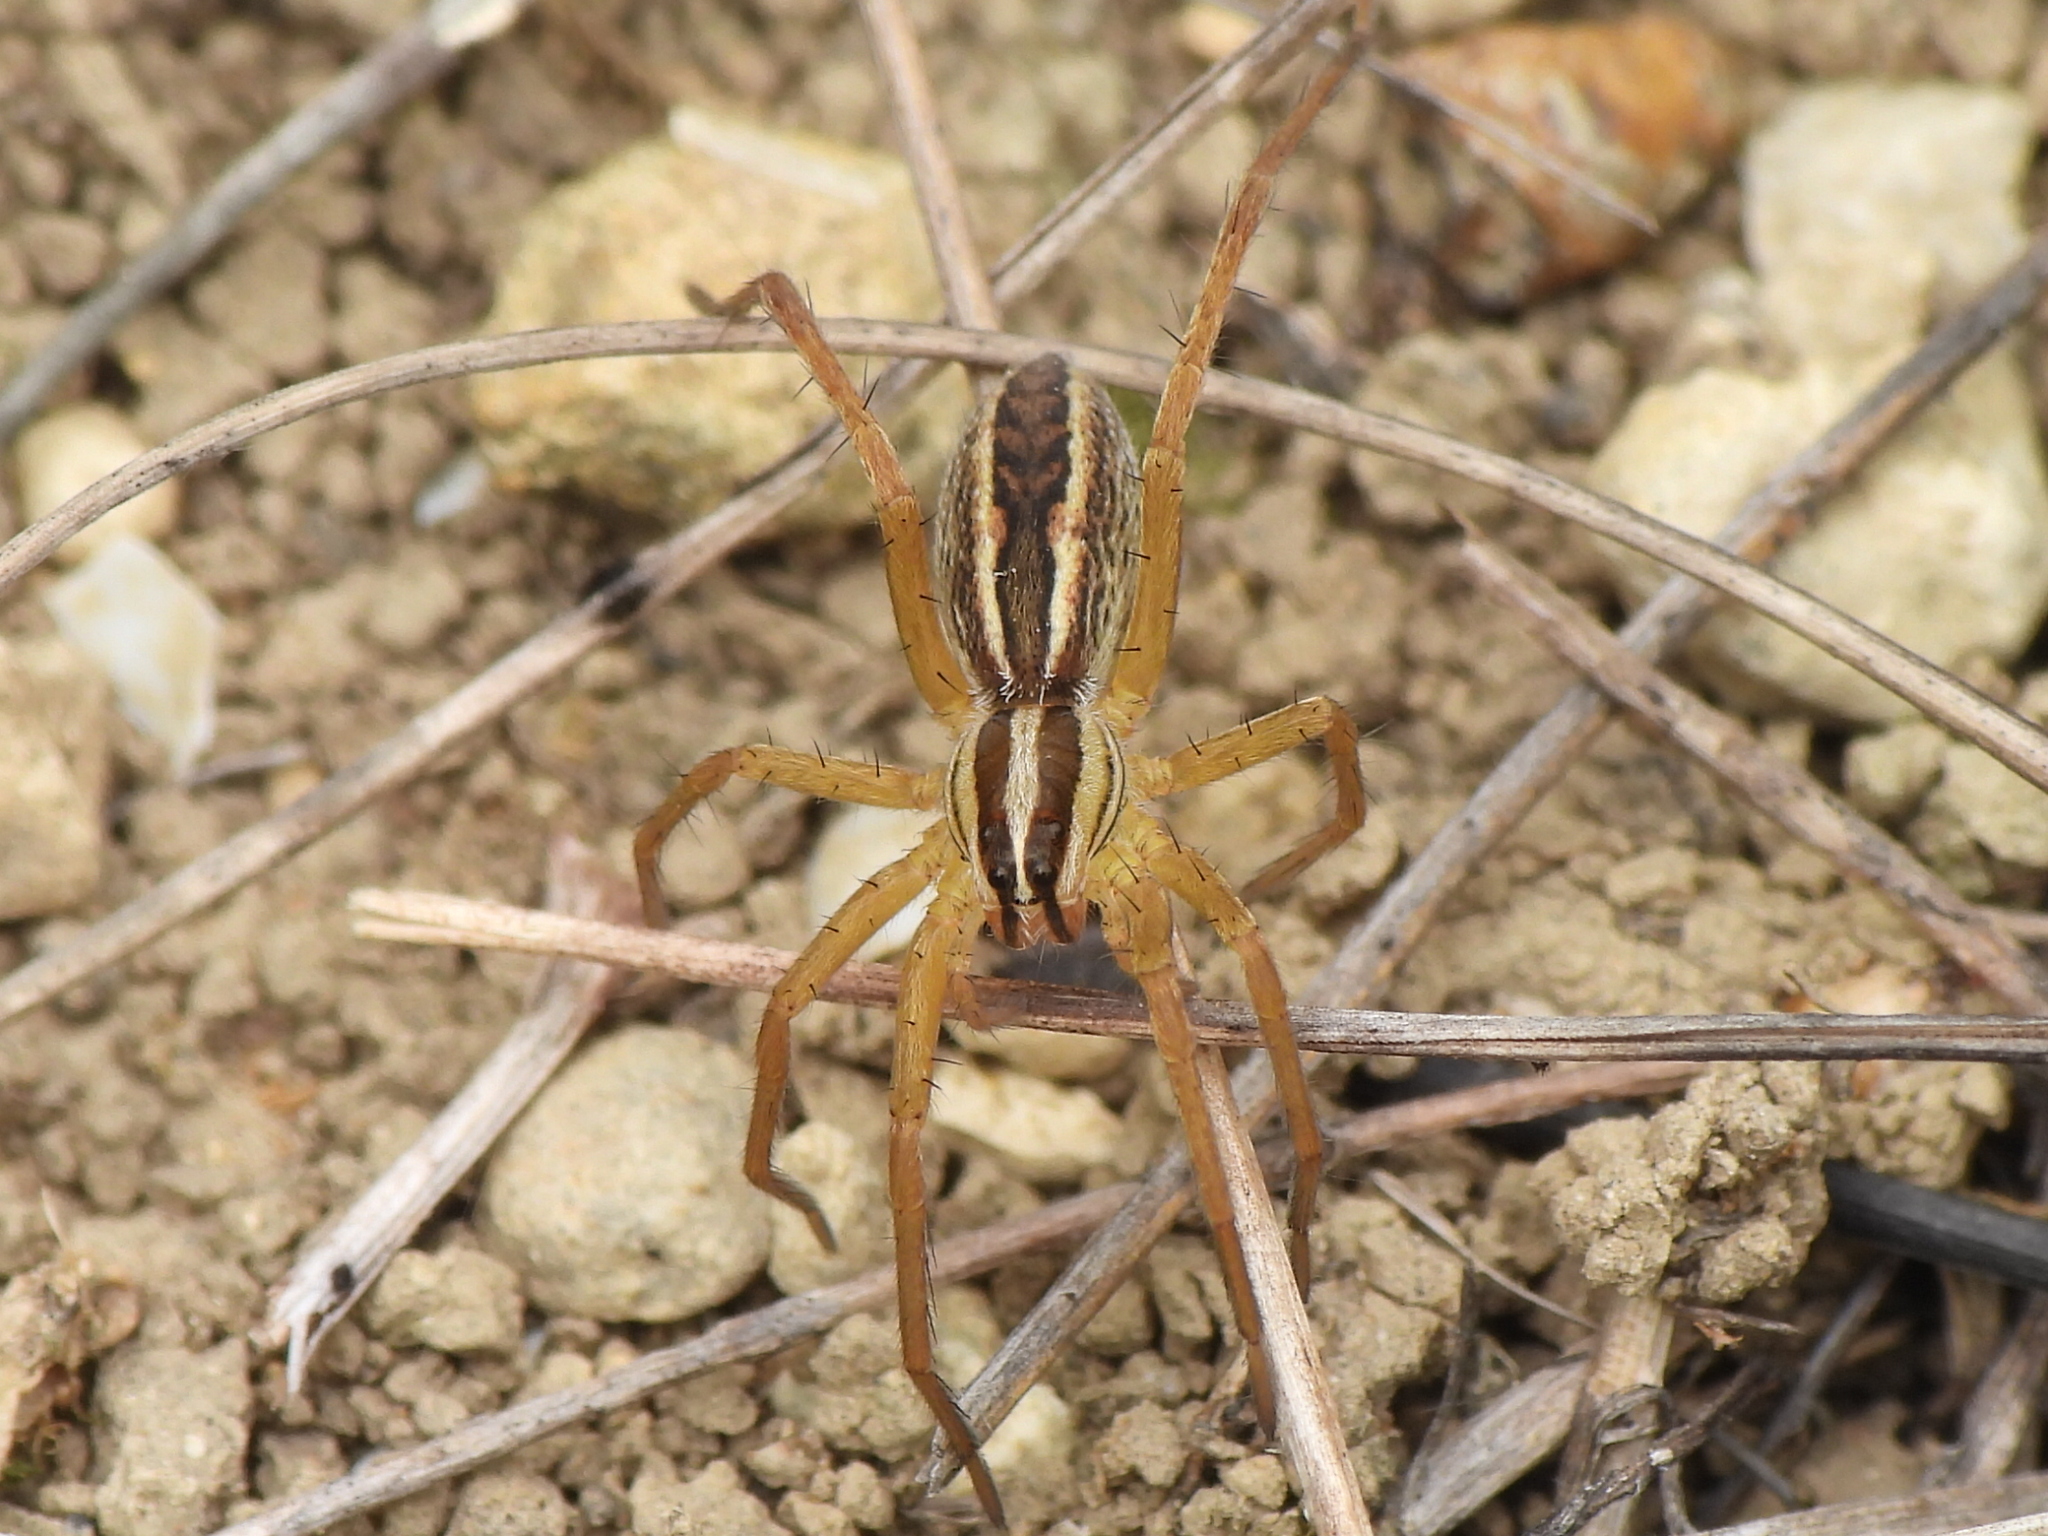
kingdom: Animalia
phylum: Arthropoda
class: Arachnida
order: Araneae
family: Lycosidae
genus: Rabidosa
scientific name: Rabidosa rabida
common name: Rabid wolf spider
